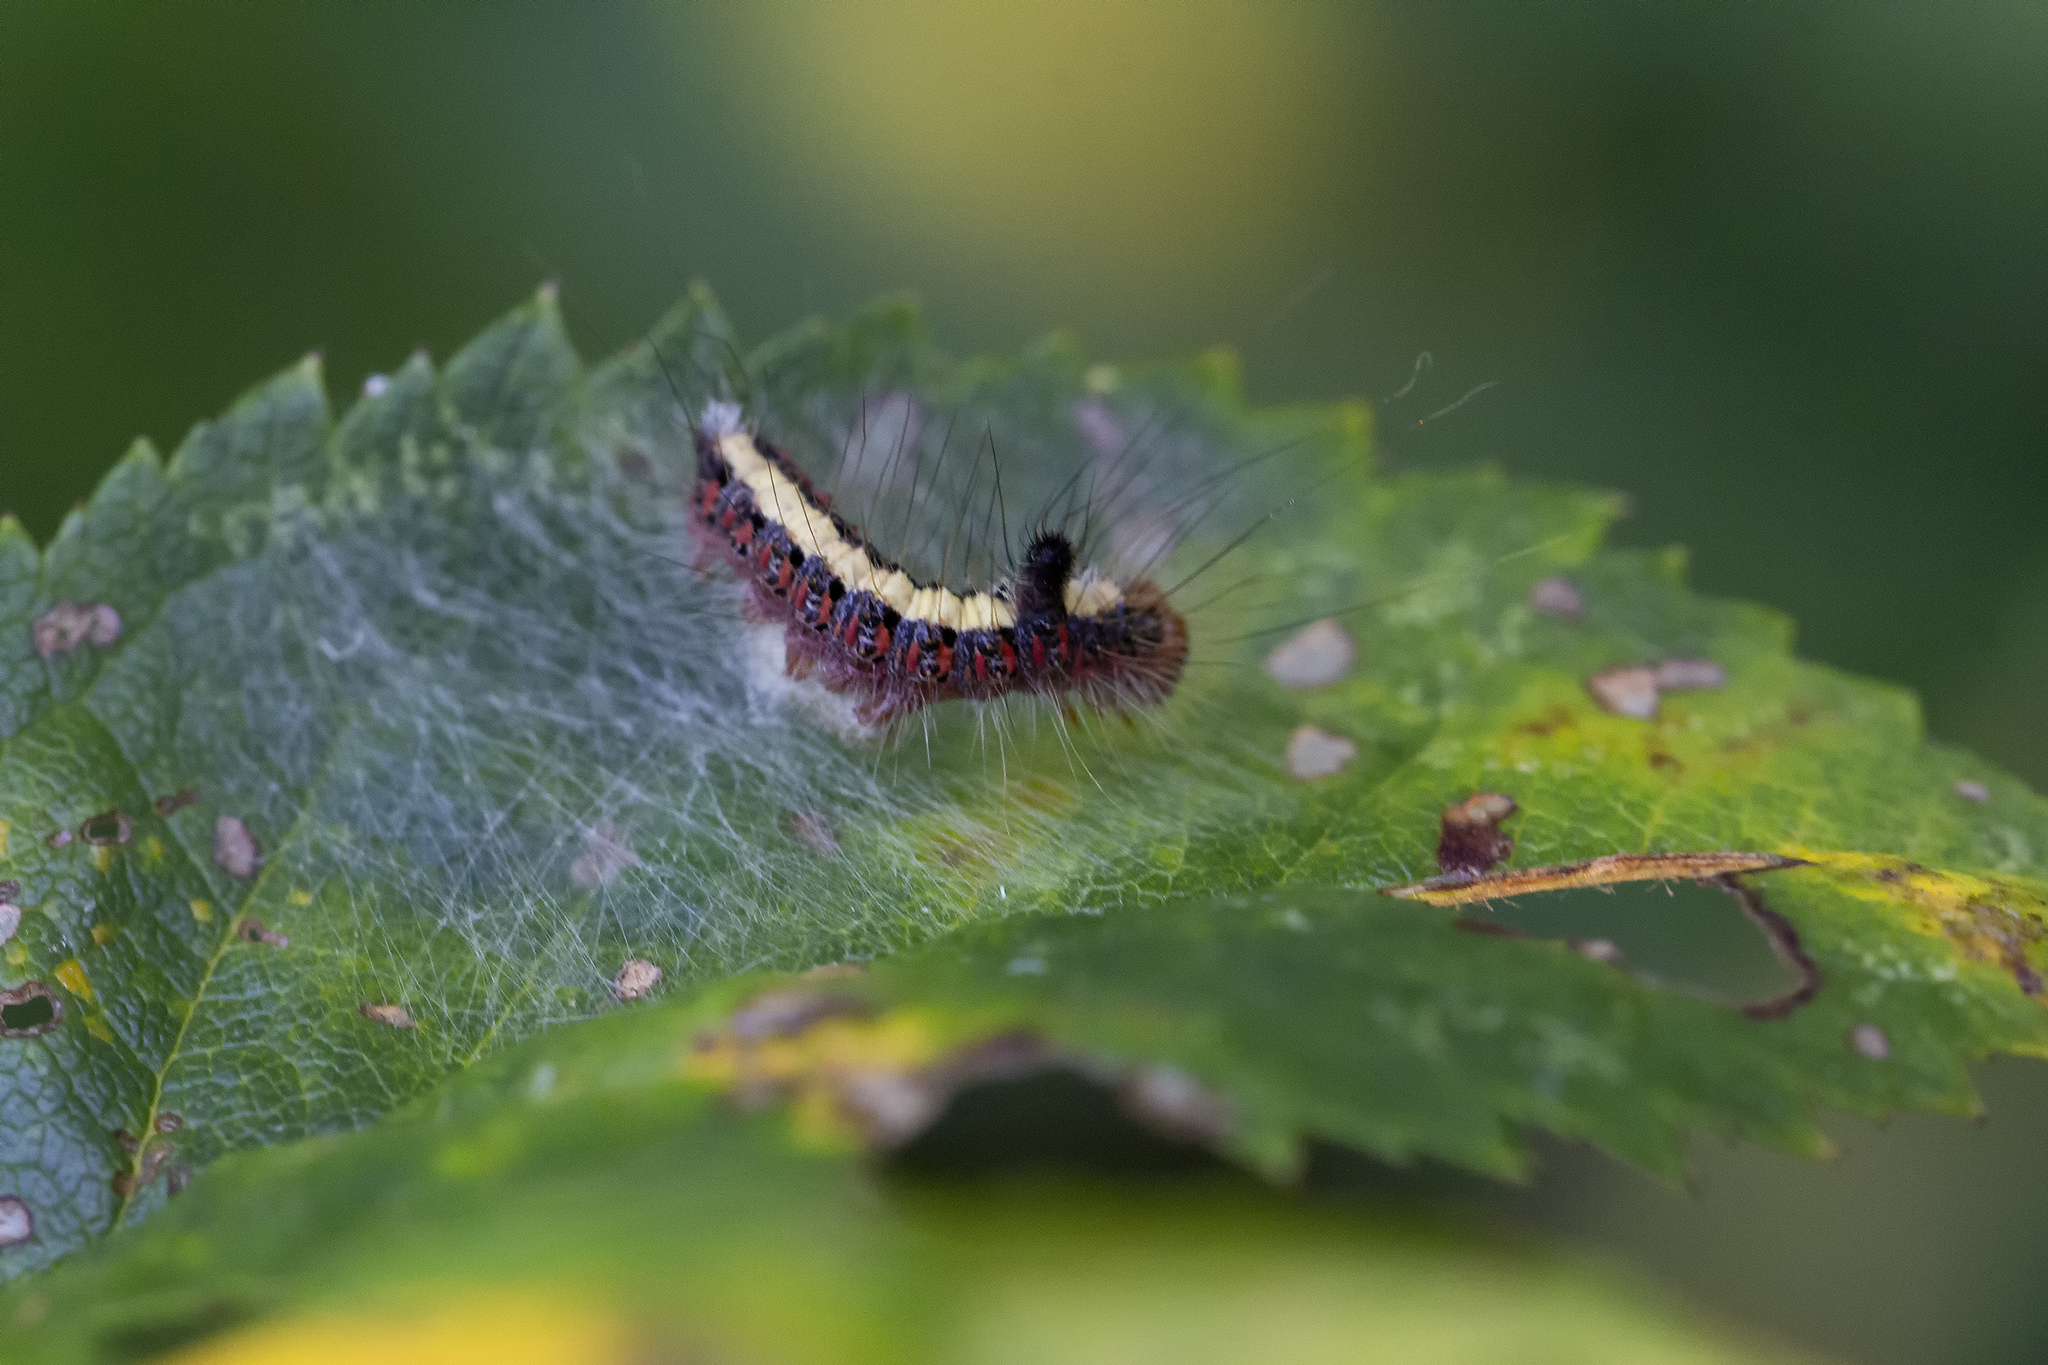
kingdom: Animalia
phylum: Arthropoda
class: Insecta
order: Lepidoptera
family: Noctuidae
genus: Acronicta
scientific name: Acronicta psi
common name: Grey dagger
